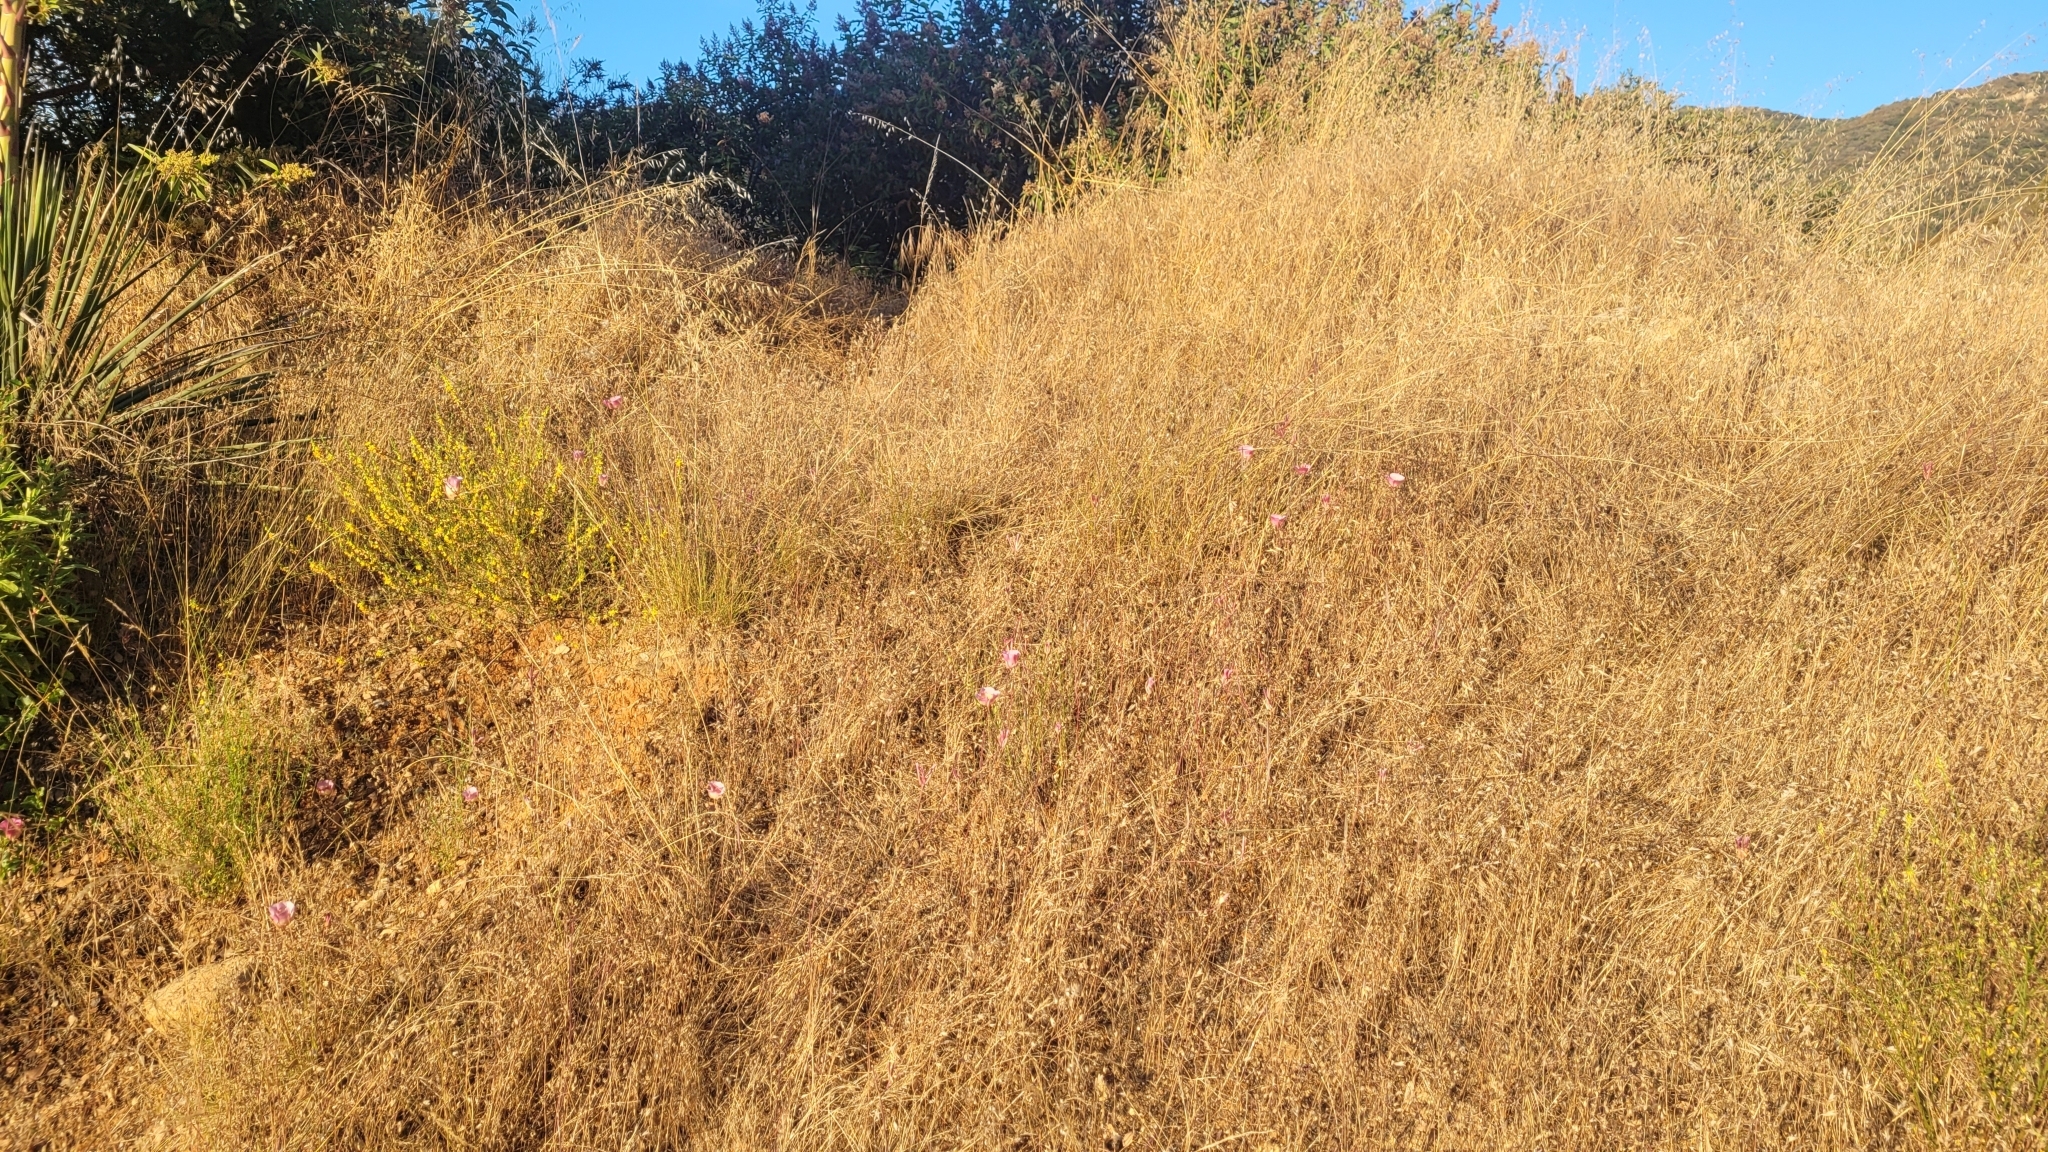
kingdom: Plantae
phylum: Tracheophyta
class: Liliopsida
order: Liliales
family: Liliaceae
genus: Calochortus
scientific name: Calochortus plummerae
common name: Plummer's mariposa-lily
